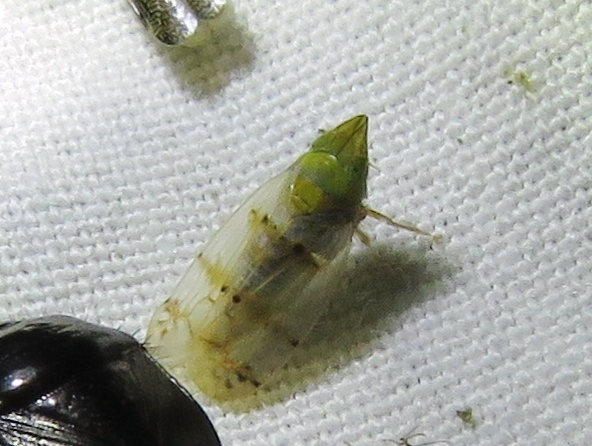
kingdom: Animalia
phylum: Arthropoda
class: Insecta
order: Hemiptera
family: Cicadellidae
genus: Japananus
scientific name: Japananus hyalinus
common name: The japanese maple leafhopper
